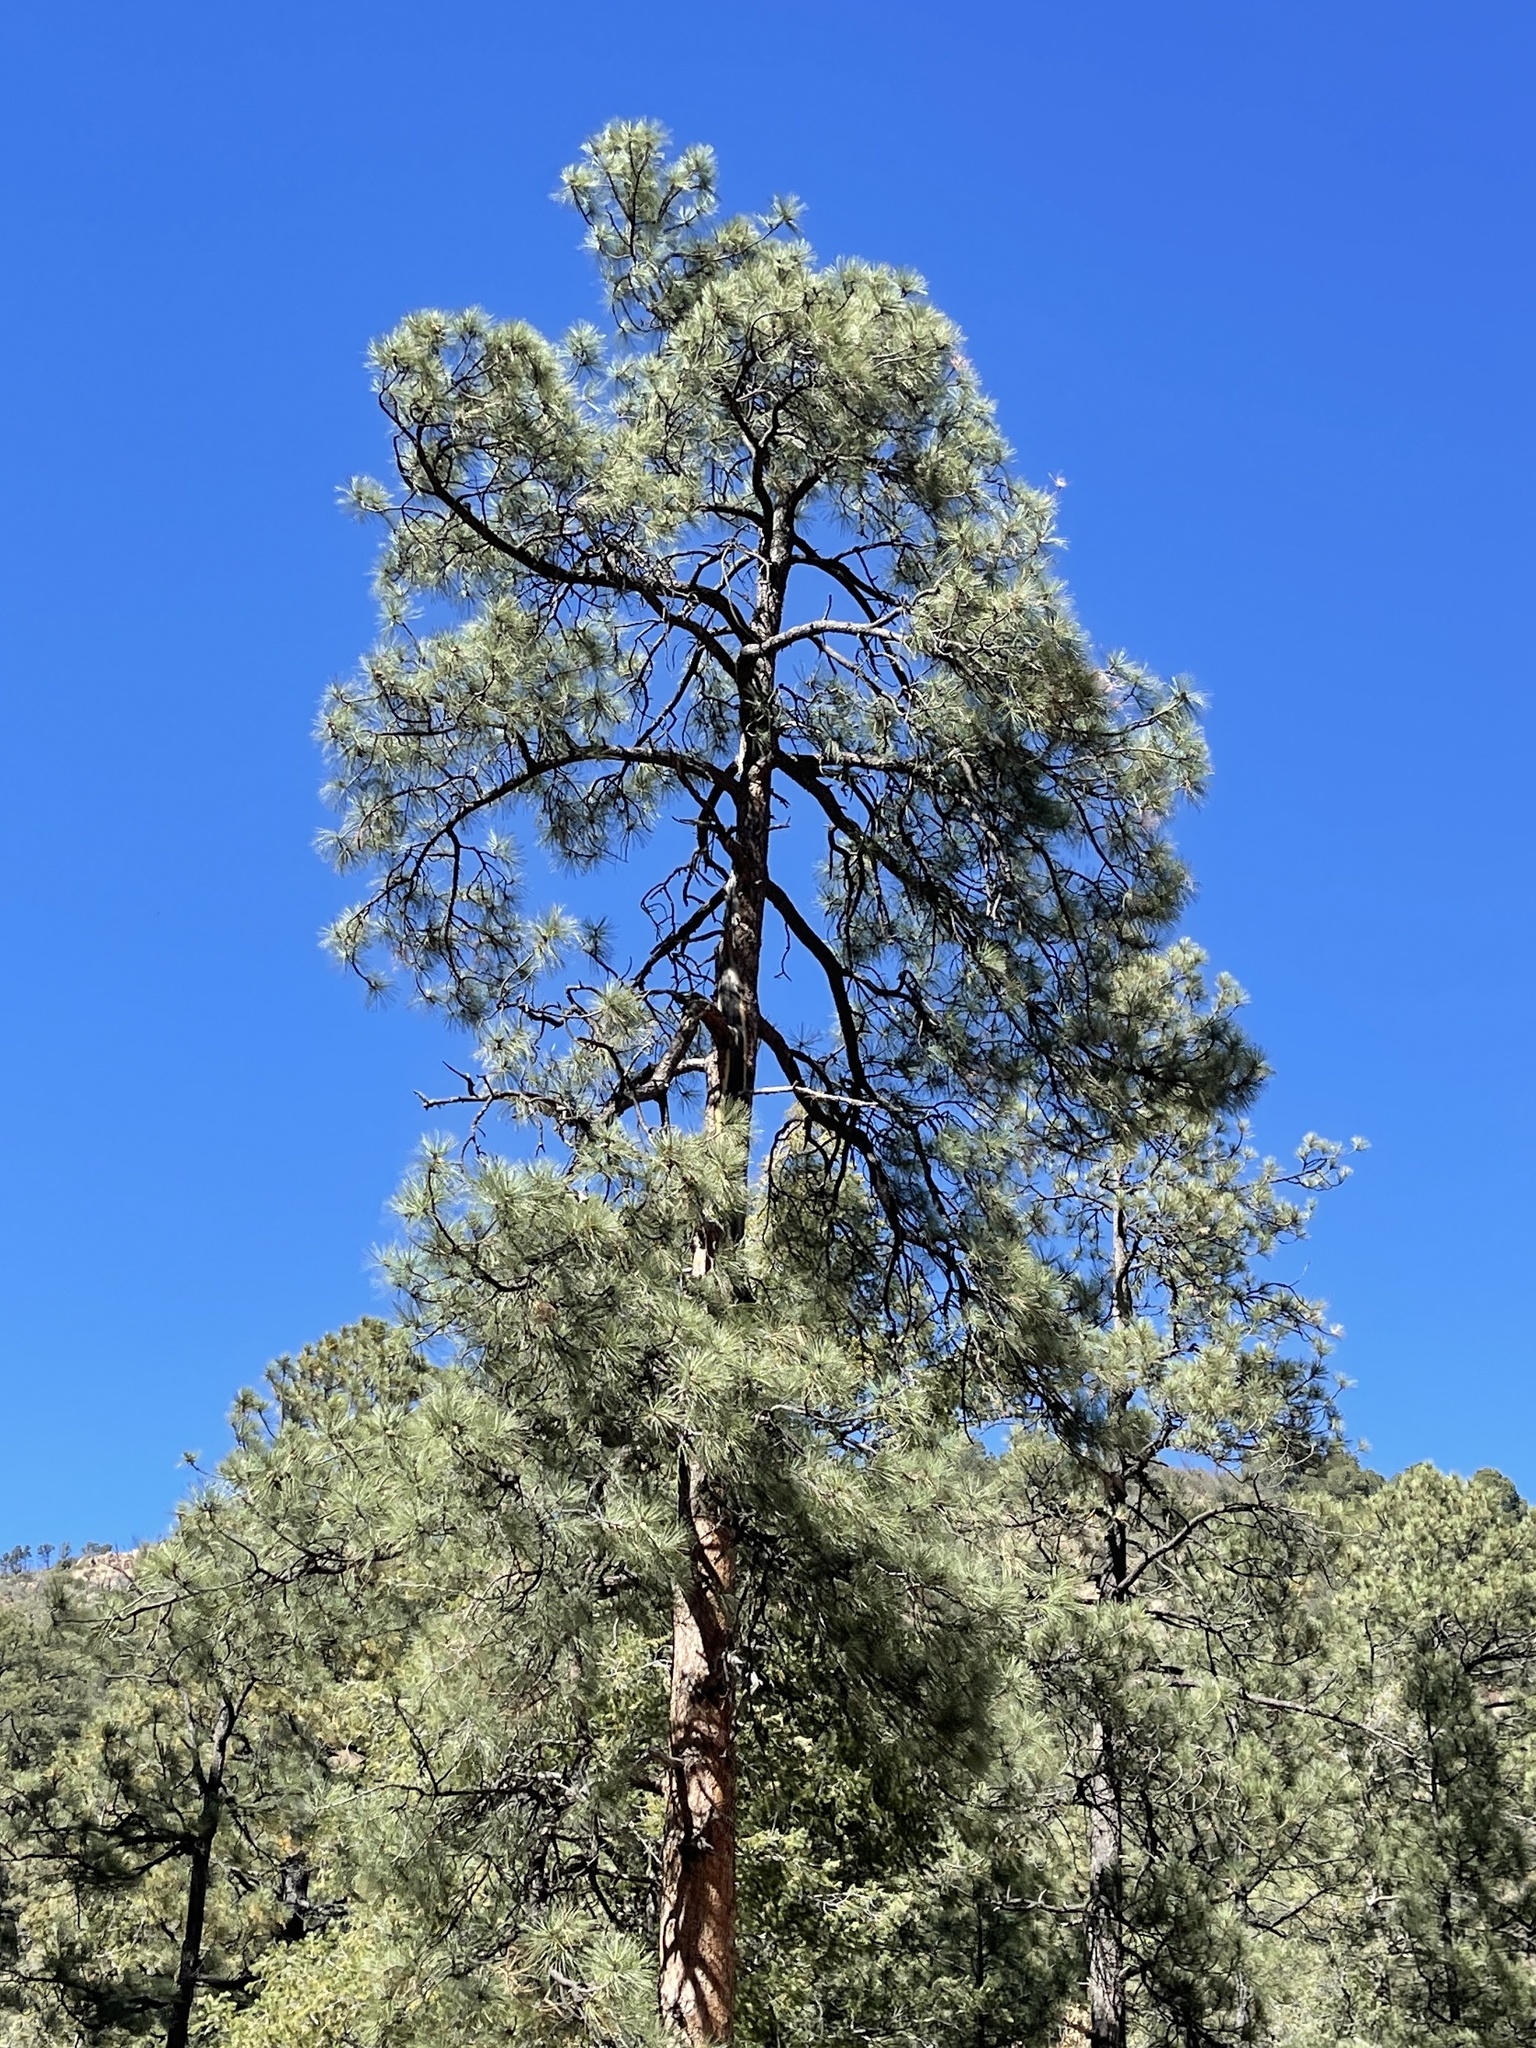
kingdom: Plantae
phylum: Tracheophyta
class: Pinopsida
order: Pinales
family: Pinaceae
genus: Pinus
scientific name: Pinus ponderosa
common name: Western yellow-pine
